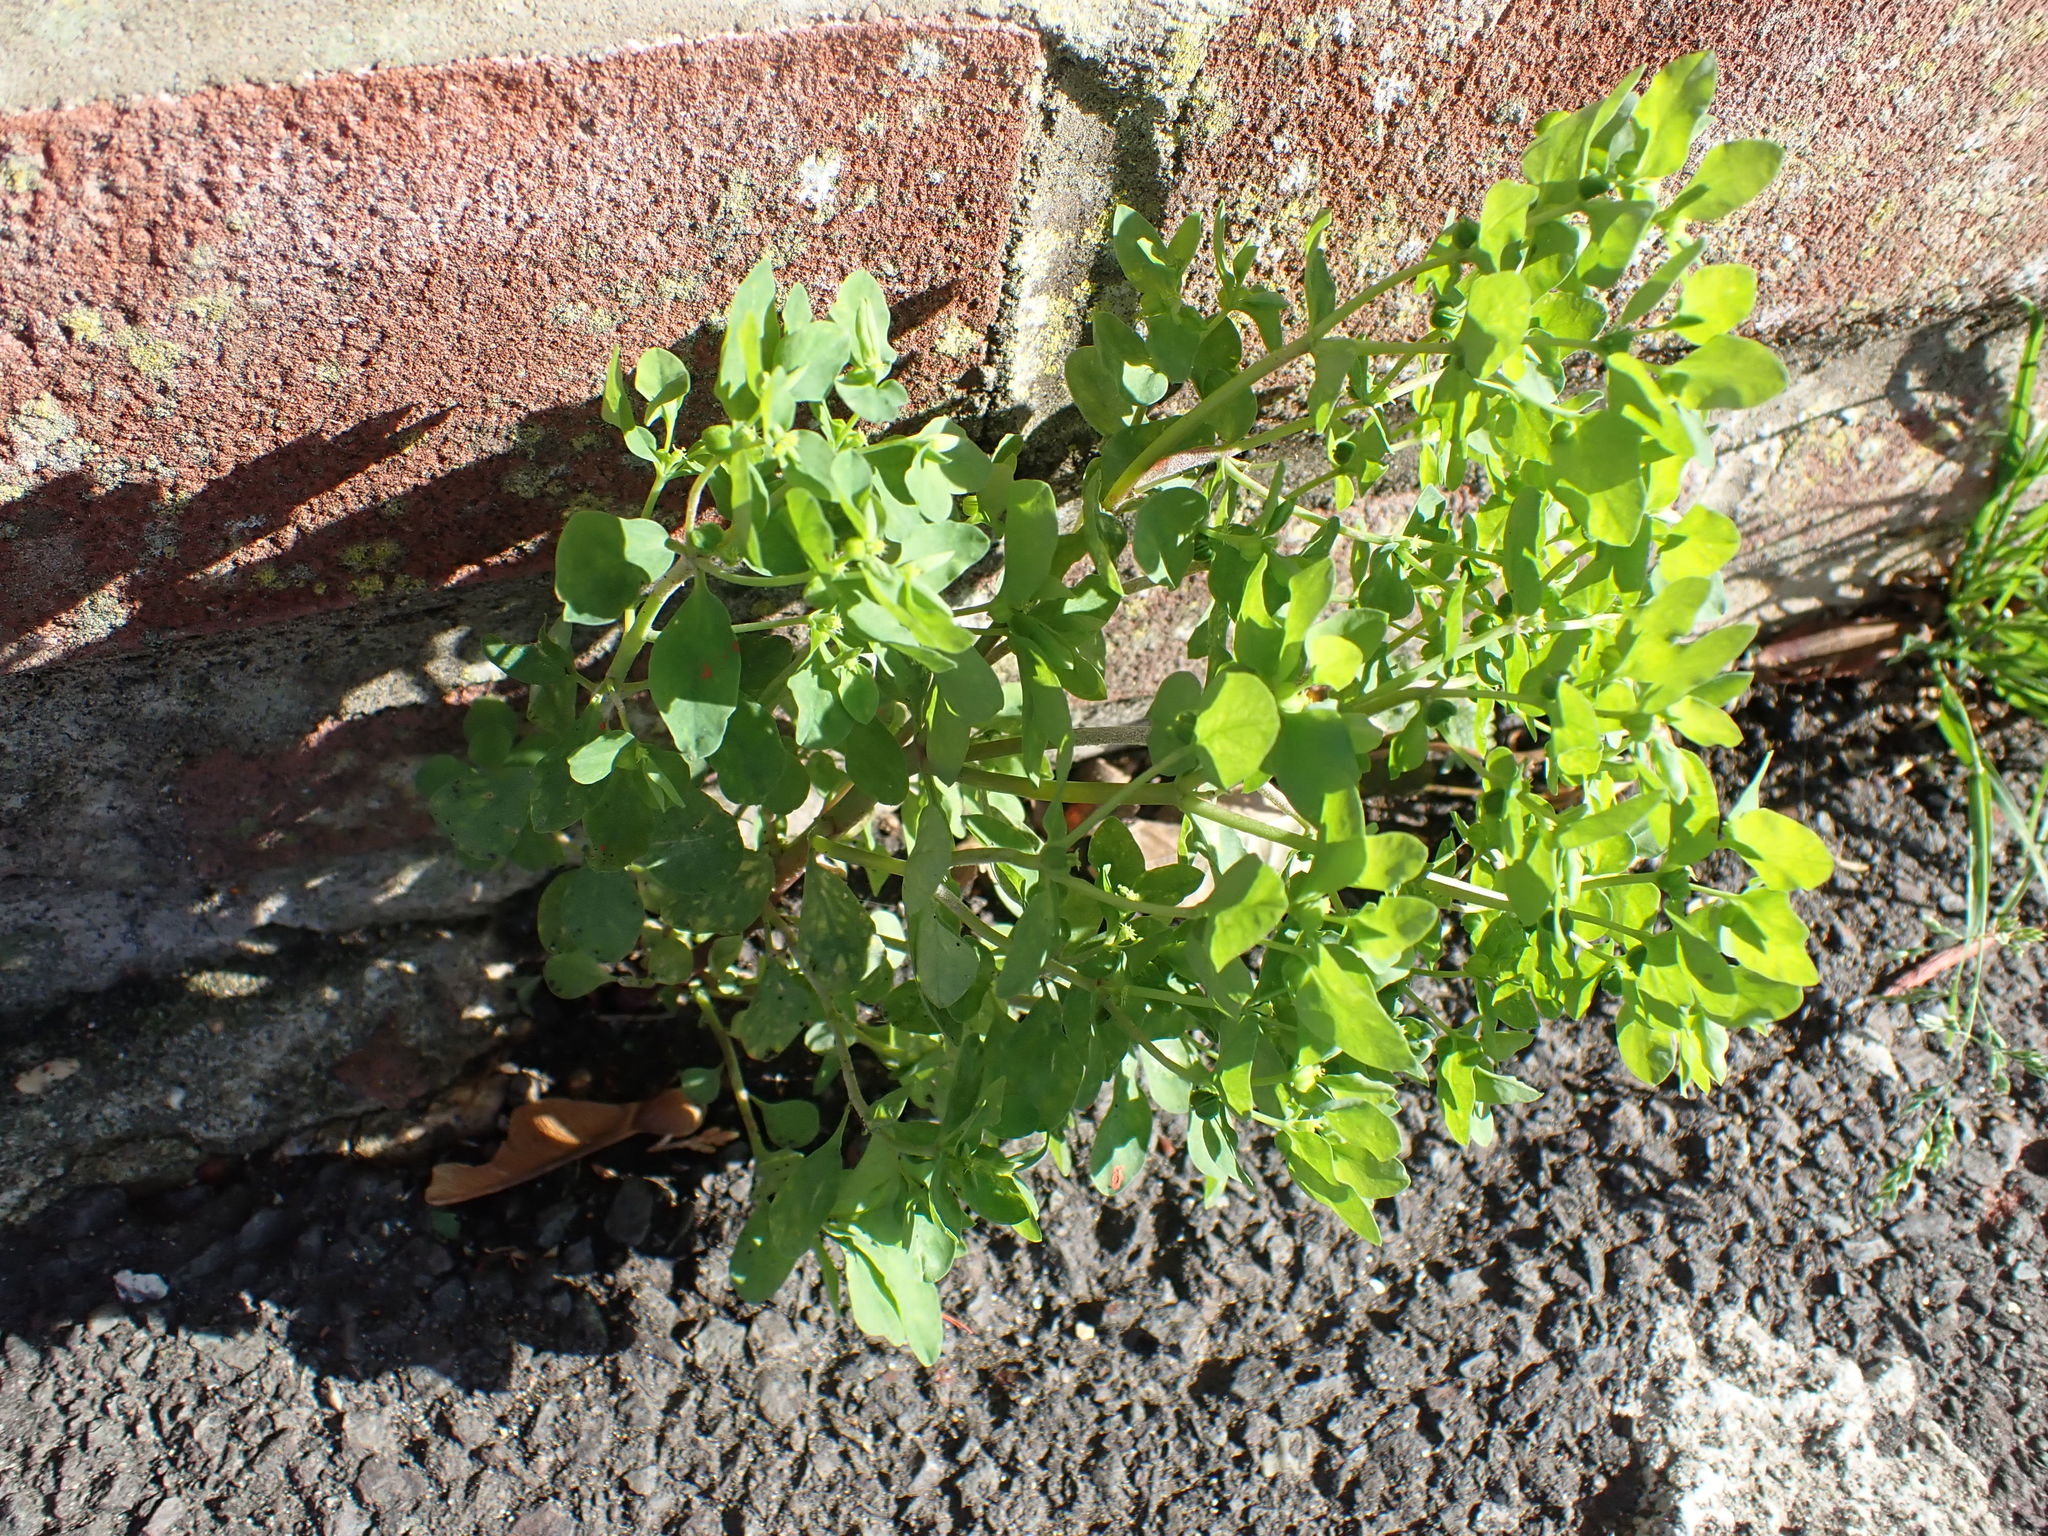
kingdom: Plantae
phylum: Tracheophyta
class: Magnoliopsida
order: Malpighiales
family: Euphorbiaceae
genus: Euphorbia
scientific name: Euphorbia peplus
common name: Petty spurge
